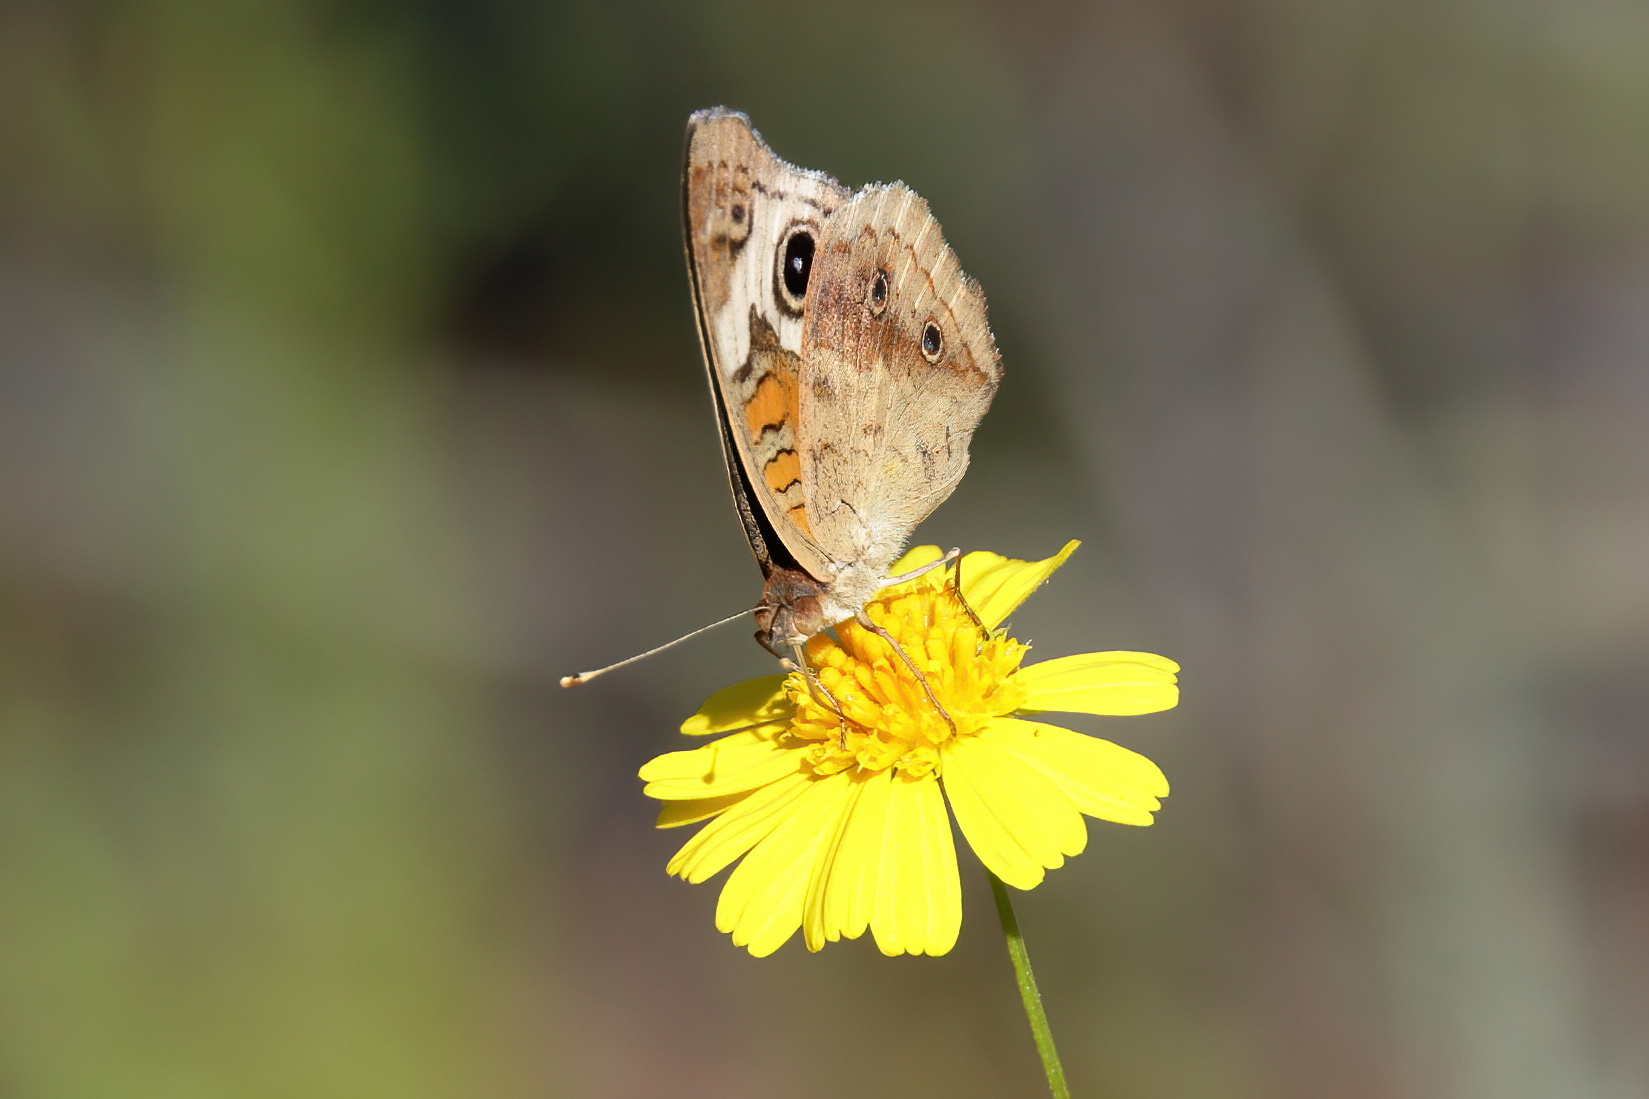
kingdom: Animalia
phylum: Arthropoda
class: Insecta
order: Lepidoptera
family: Nymphalidae
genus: Junonia
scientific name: Junonia coenia
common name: Common buckeye
